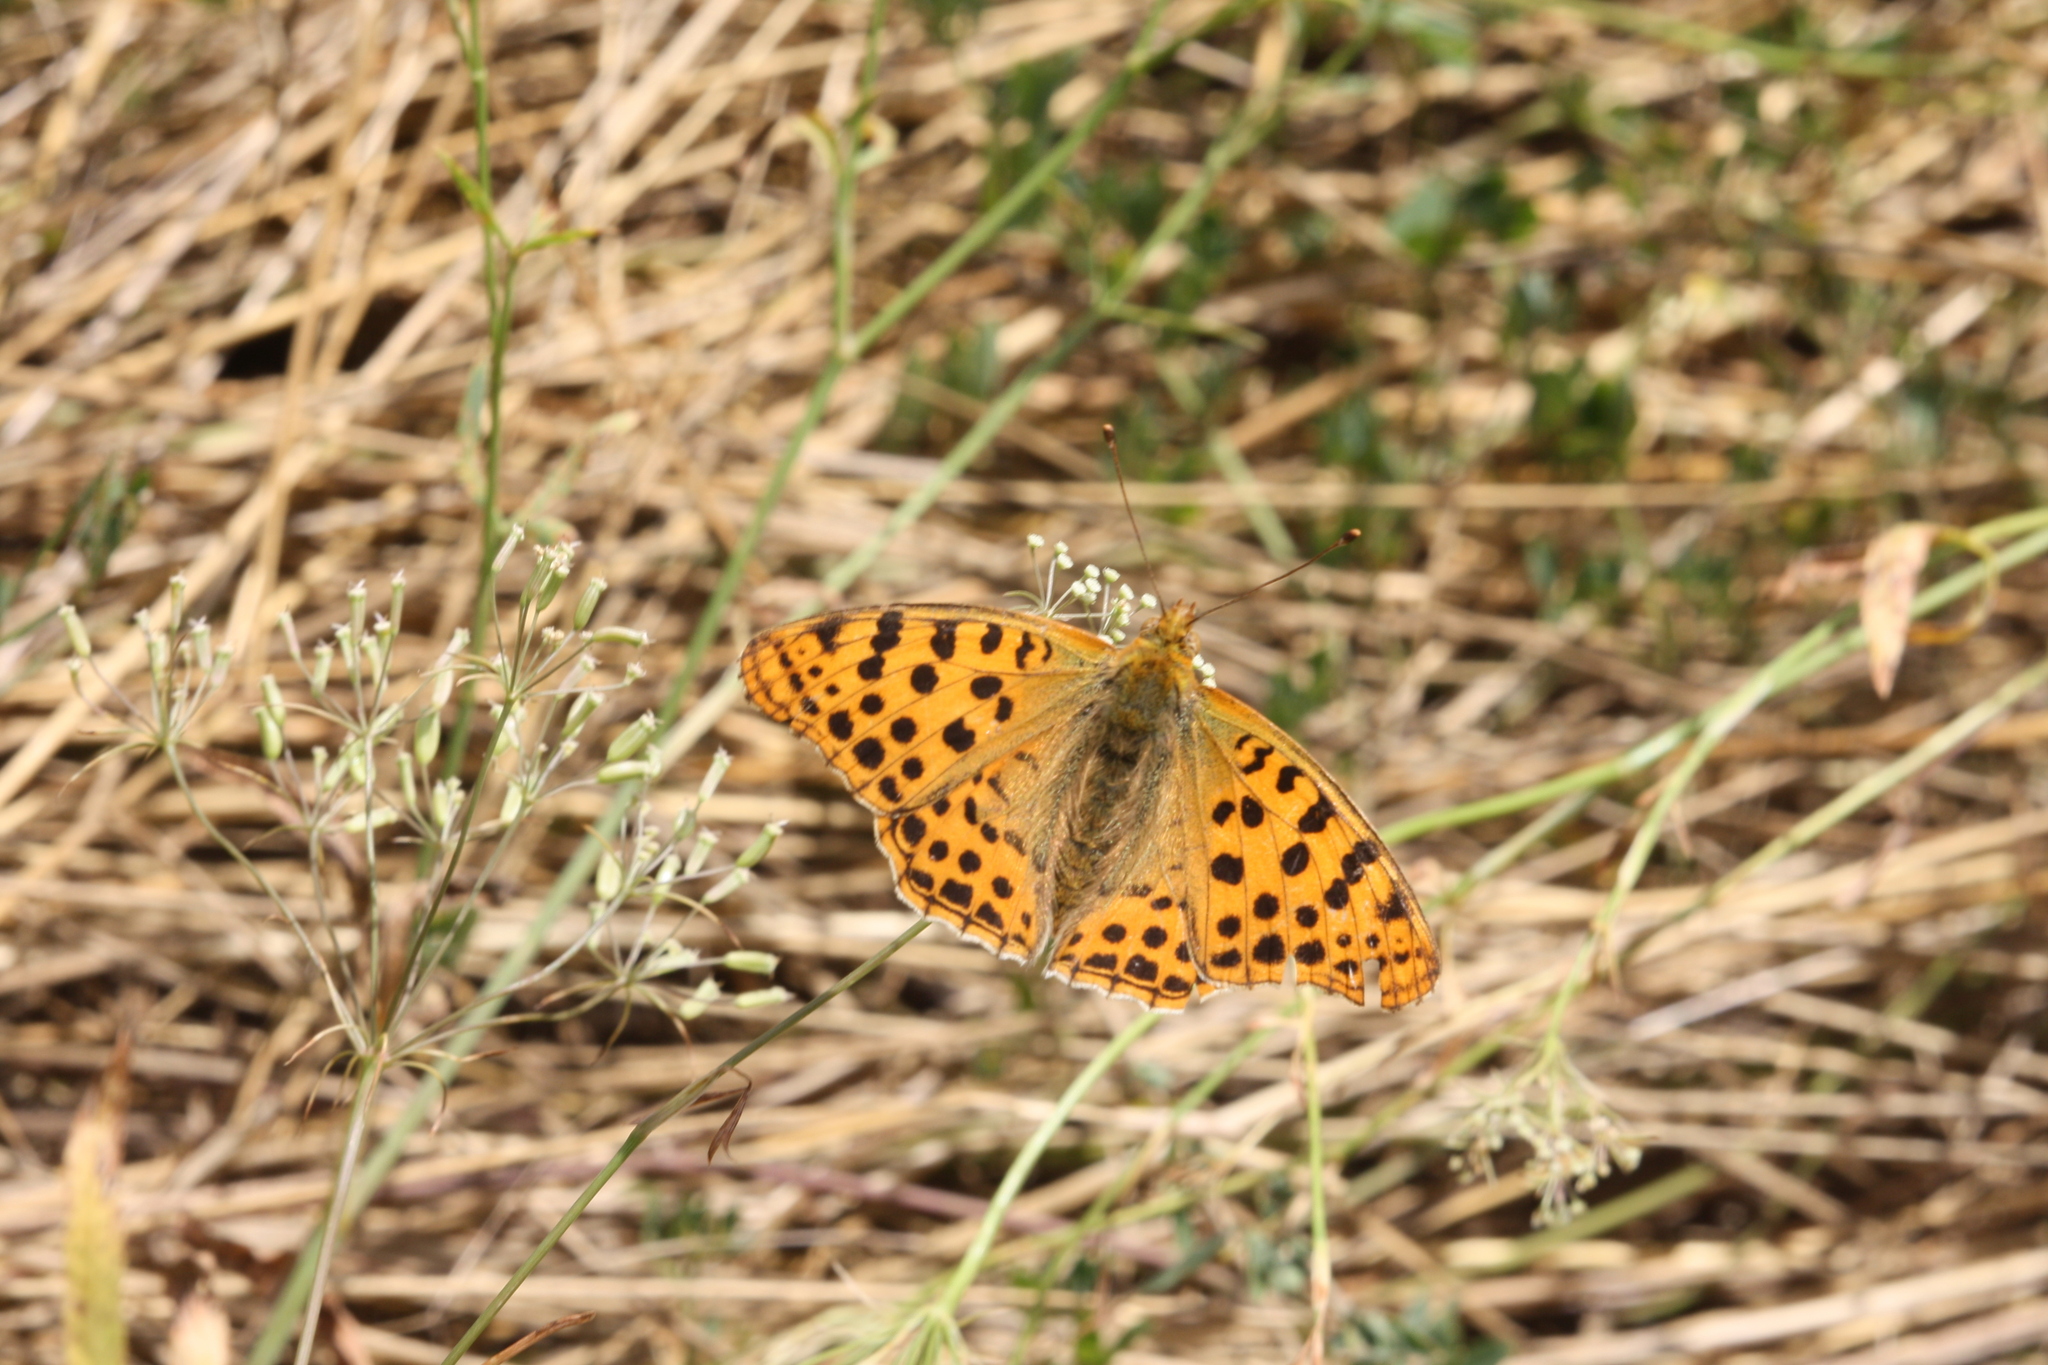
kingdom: Animalia
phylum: Arthropoda
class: Insecta
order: Lepidoptera
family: Nymphalidae
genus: Issoria
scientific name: Issoria lathonia
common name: Queen of spain fritillary
